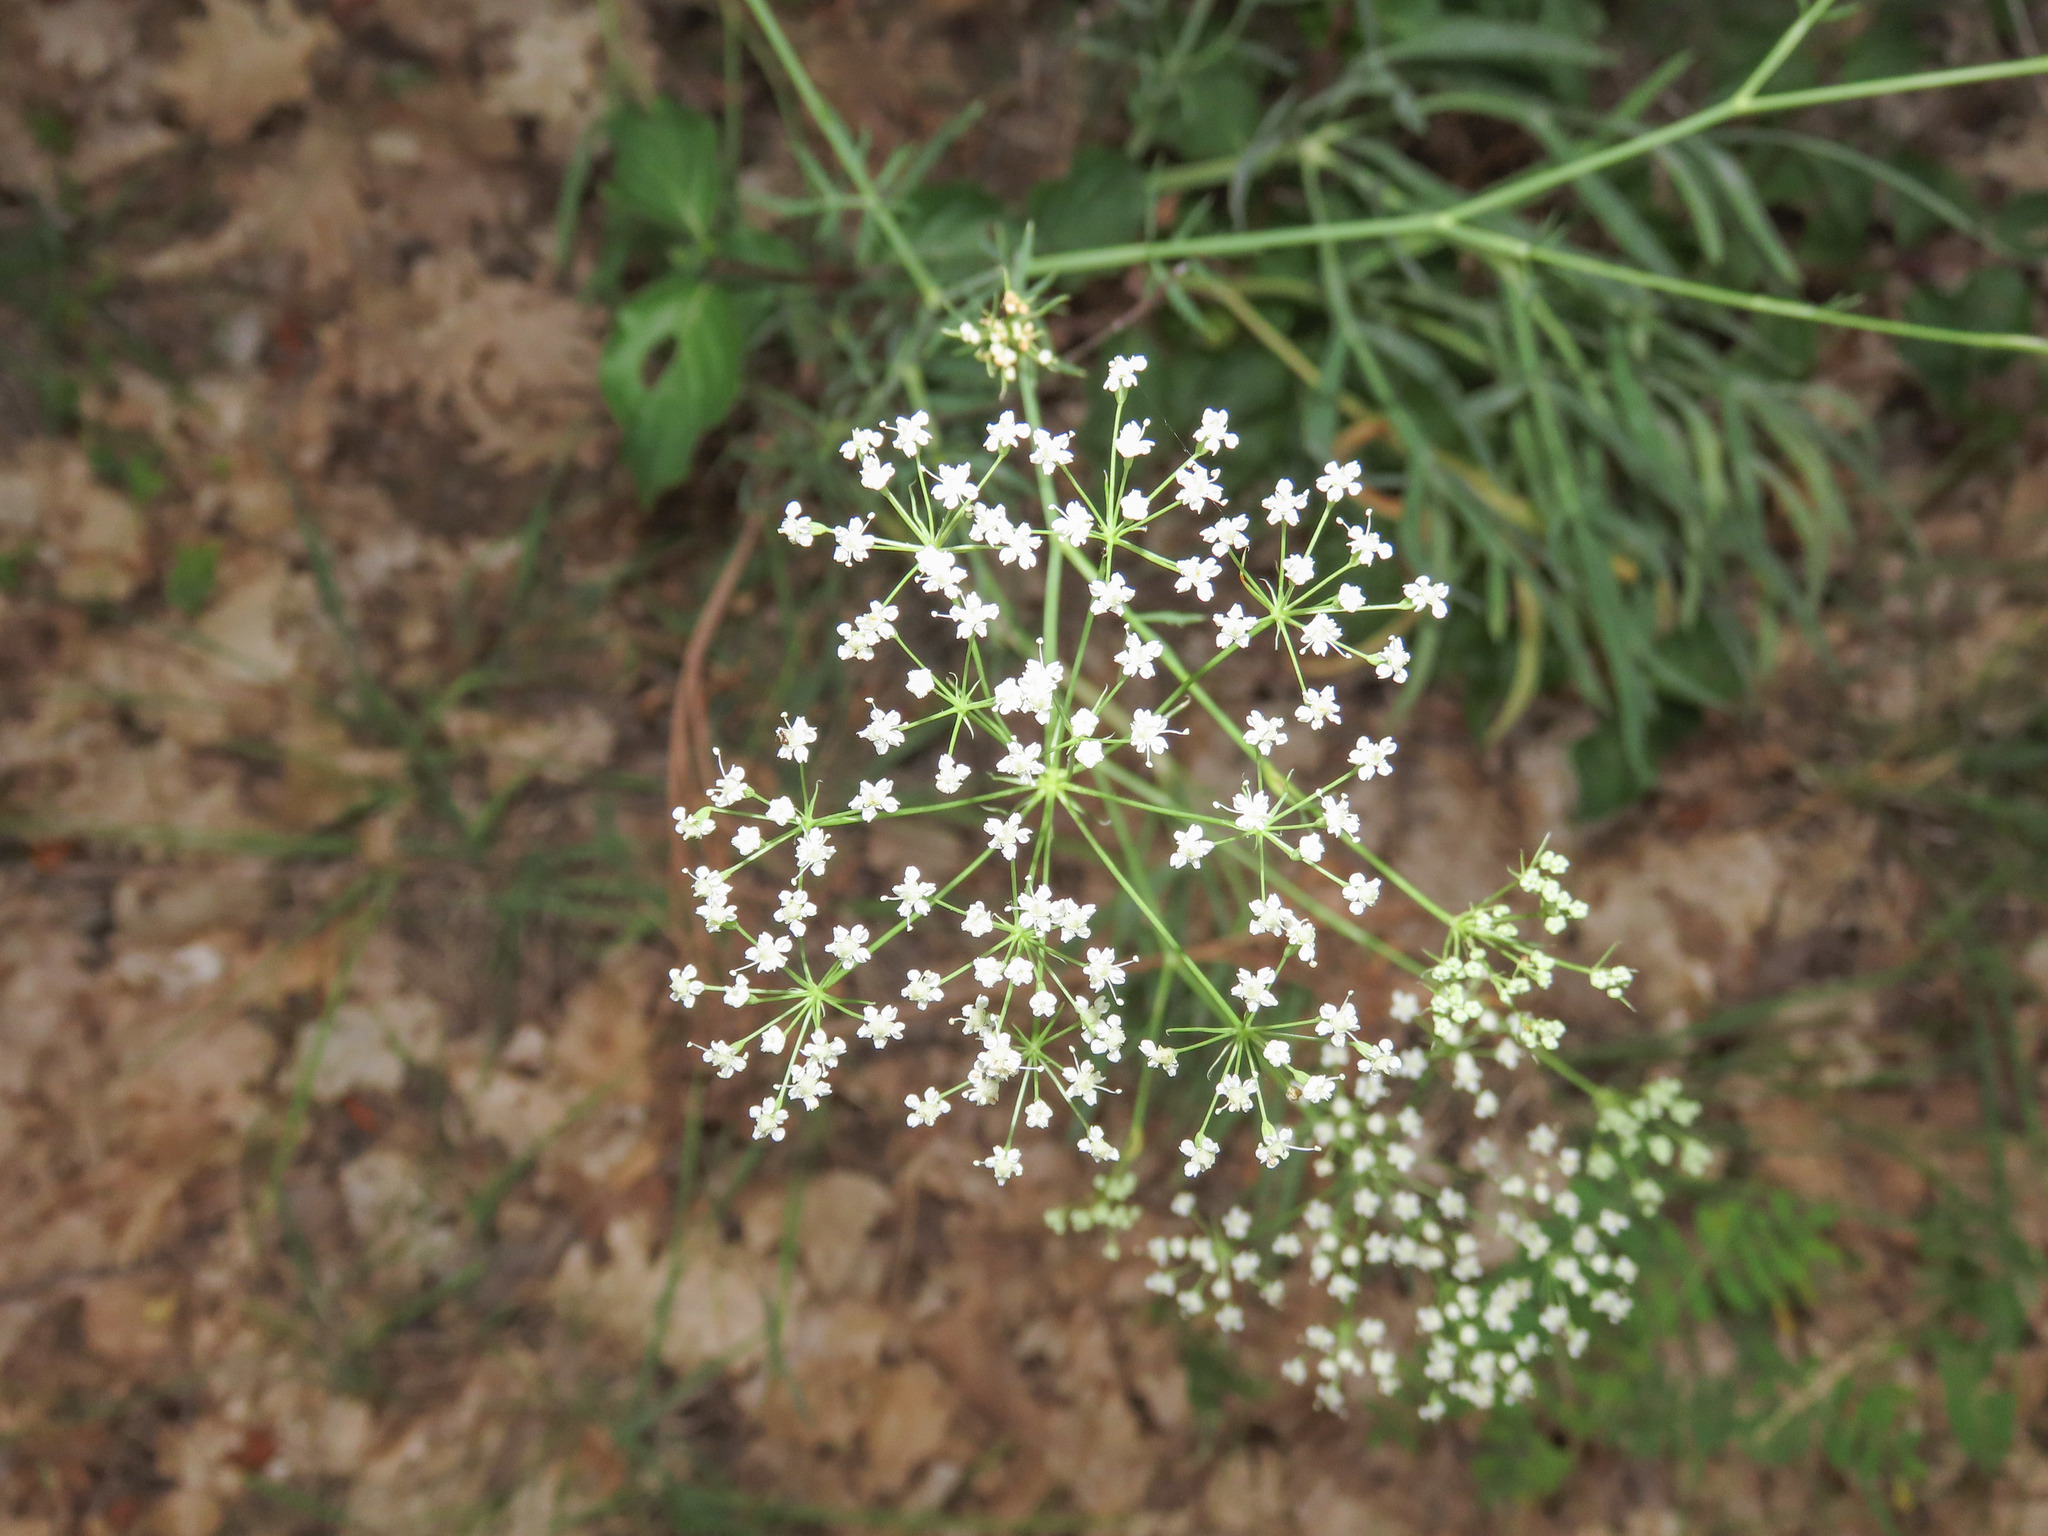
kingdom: Plantae
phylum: Tracheophyta
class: Magnoliopsida
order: Apiales
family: Apiaceae
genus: Falcaria
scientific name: Falcaria vulgaris
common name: Longleaf
